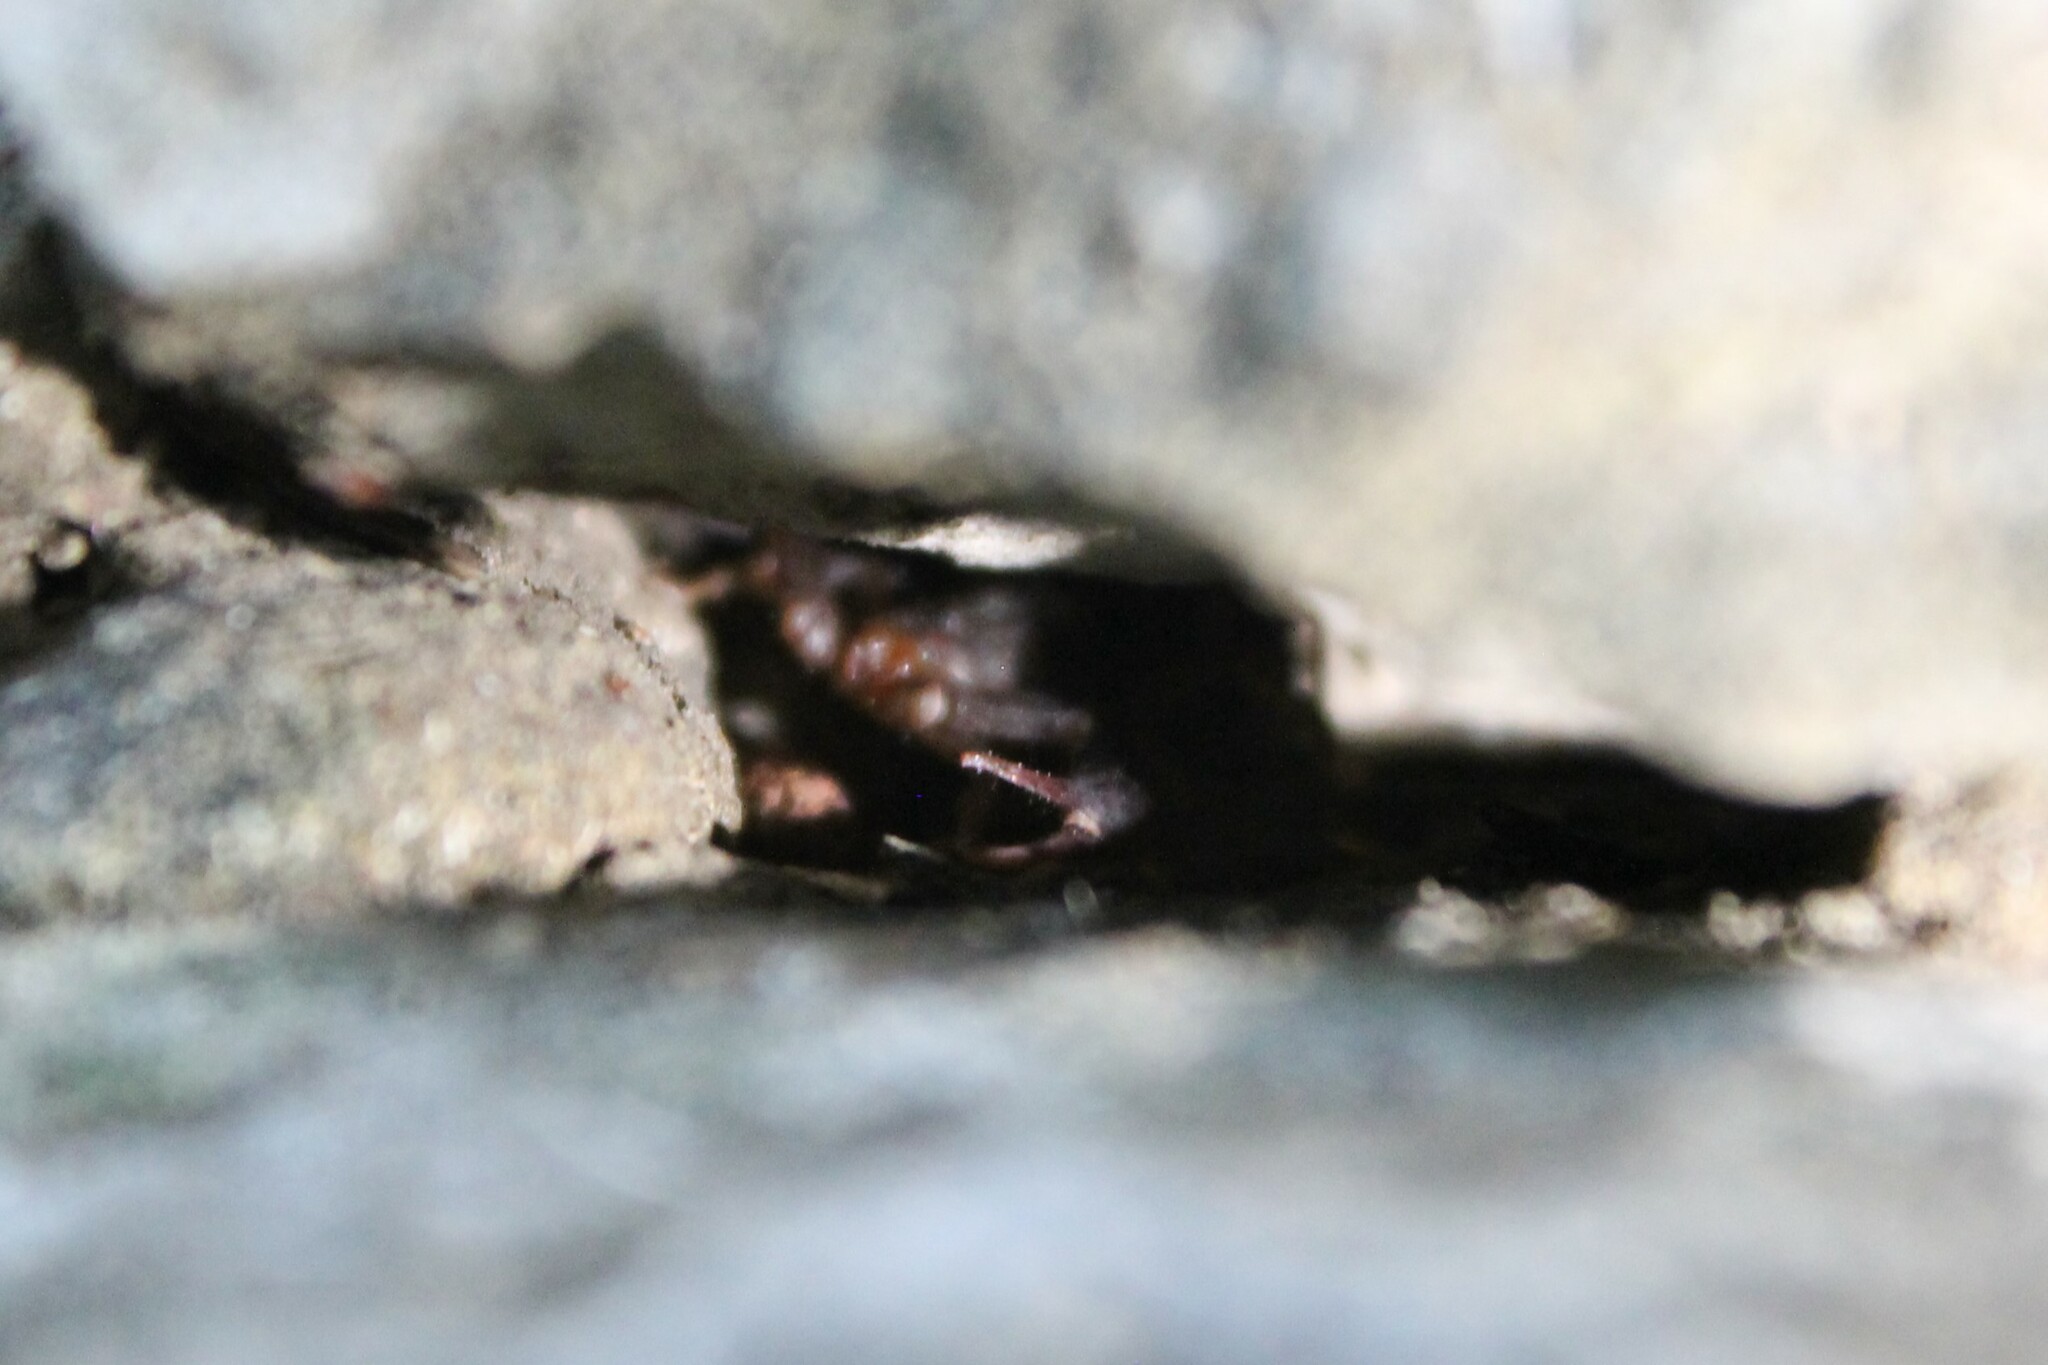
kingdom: Animalia
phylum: Arthropoda
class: Arachnida
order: Scorpiones
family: Vaejovidae
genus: Vaejovis
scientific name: Vaejovis carolinianus
